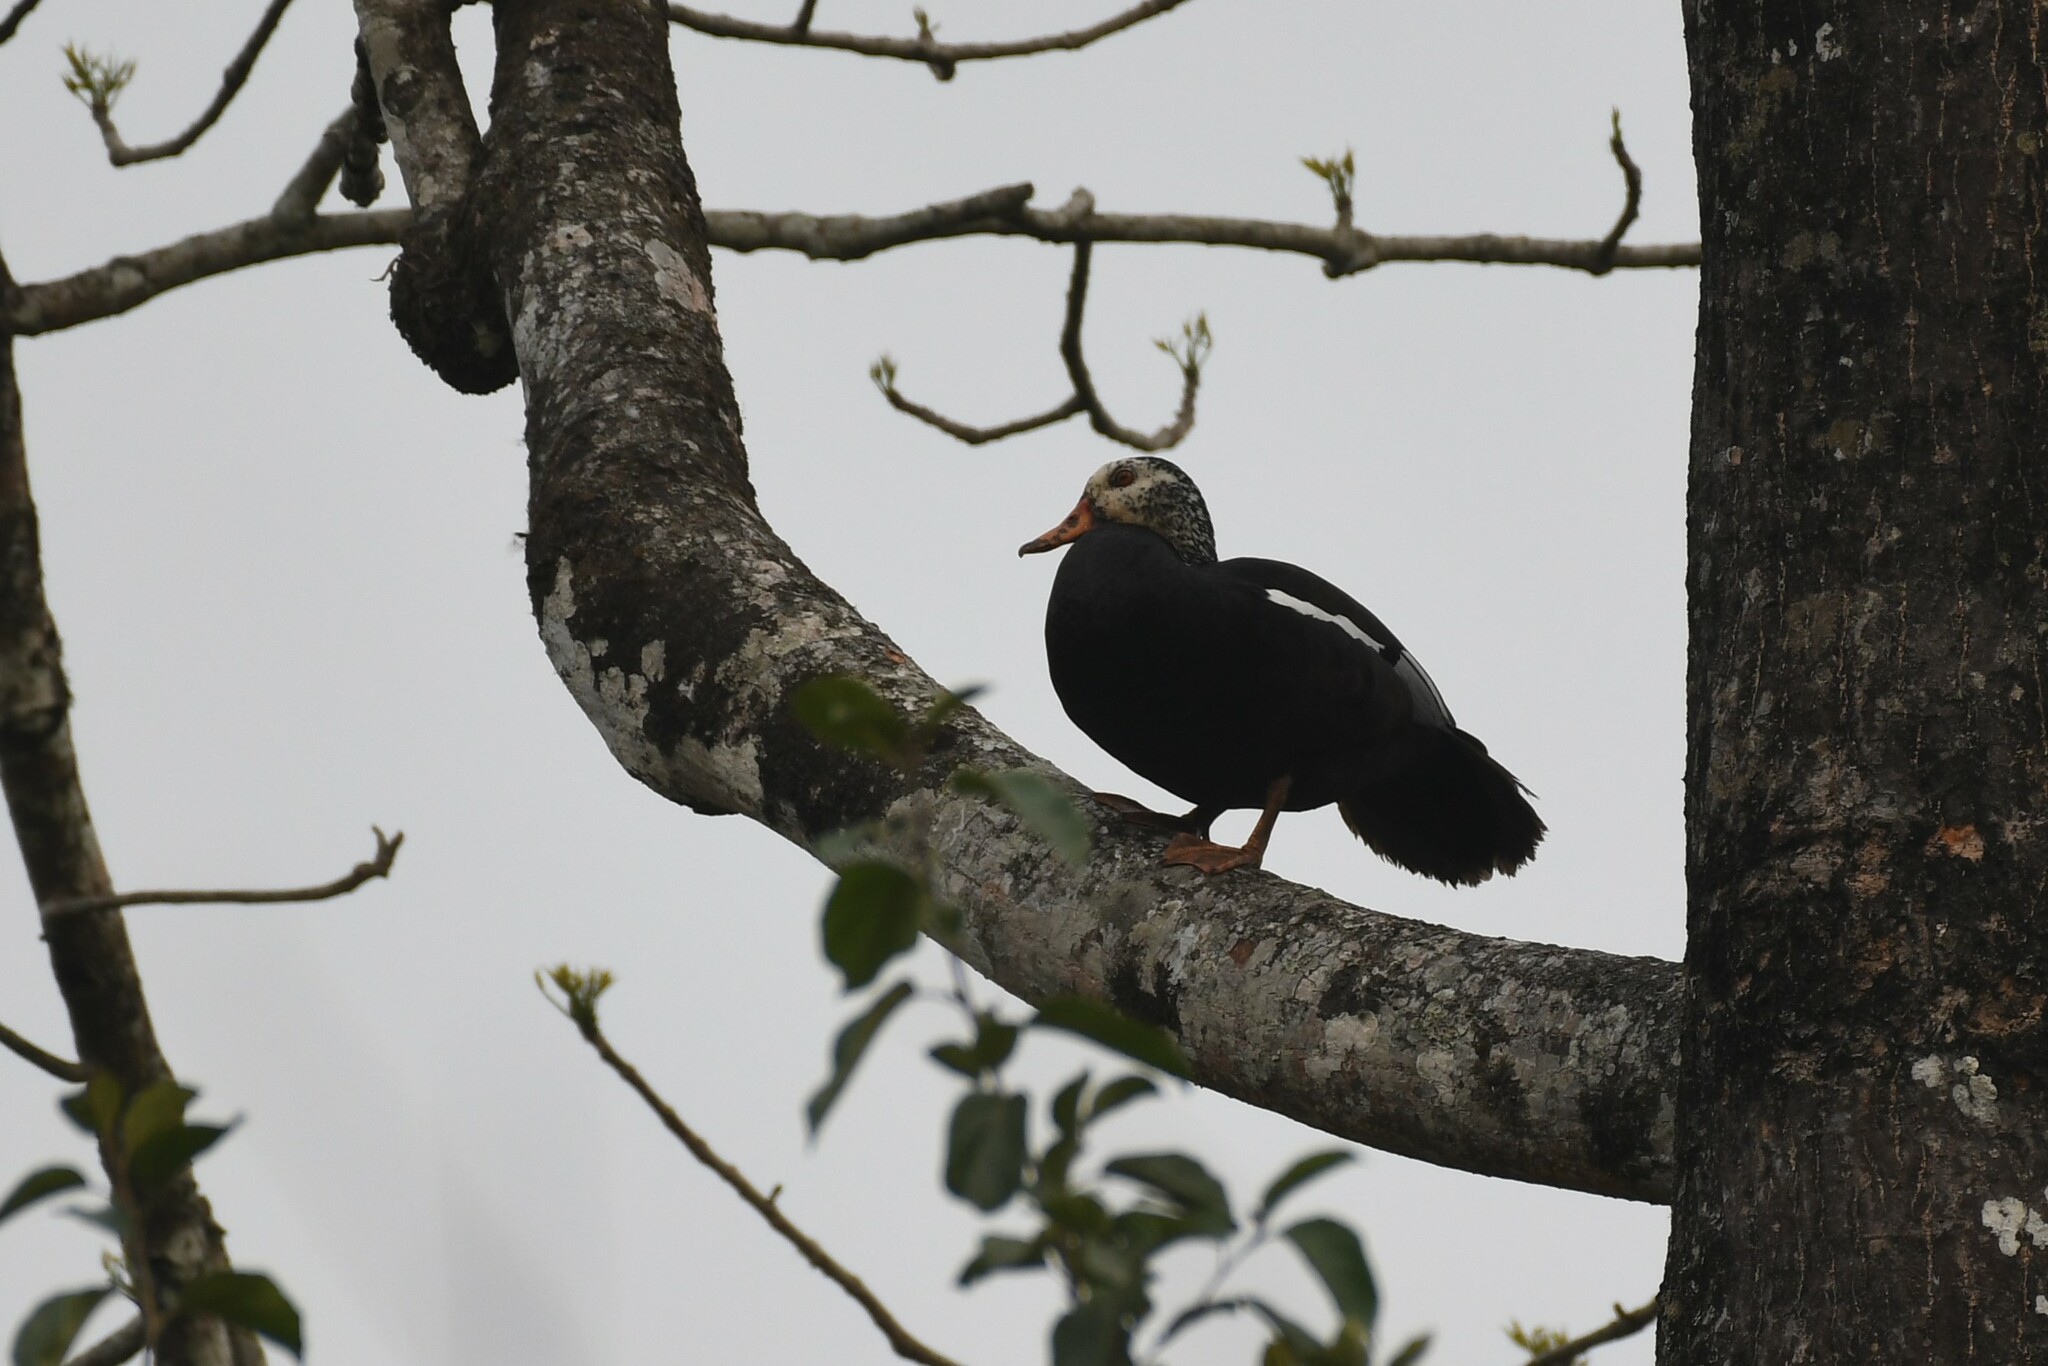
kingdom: Animalia
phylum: Chordata
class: Aves
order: Anseriformes
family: Anatidae
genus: Asarcornis
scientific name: Asarcornis scutulata
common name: White-winged duck
